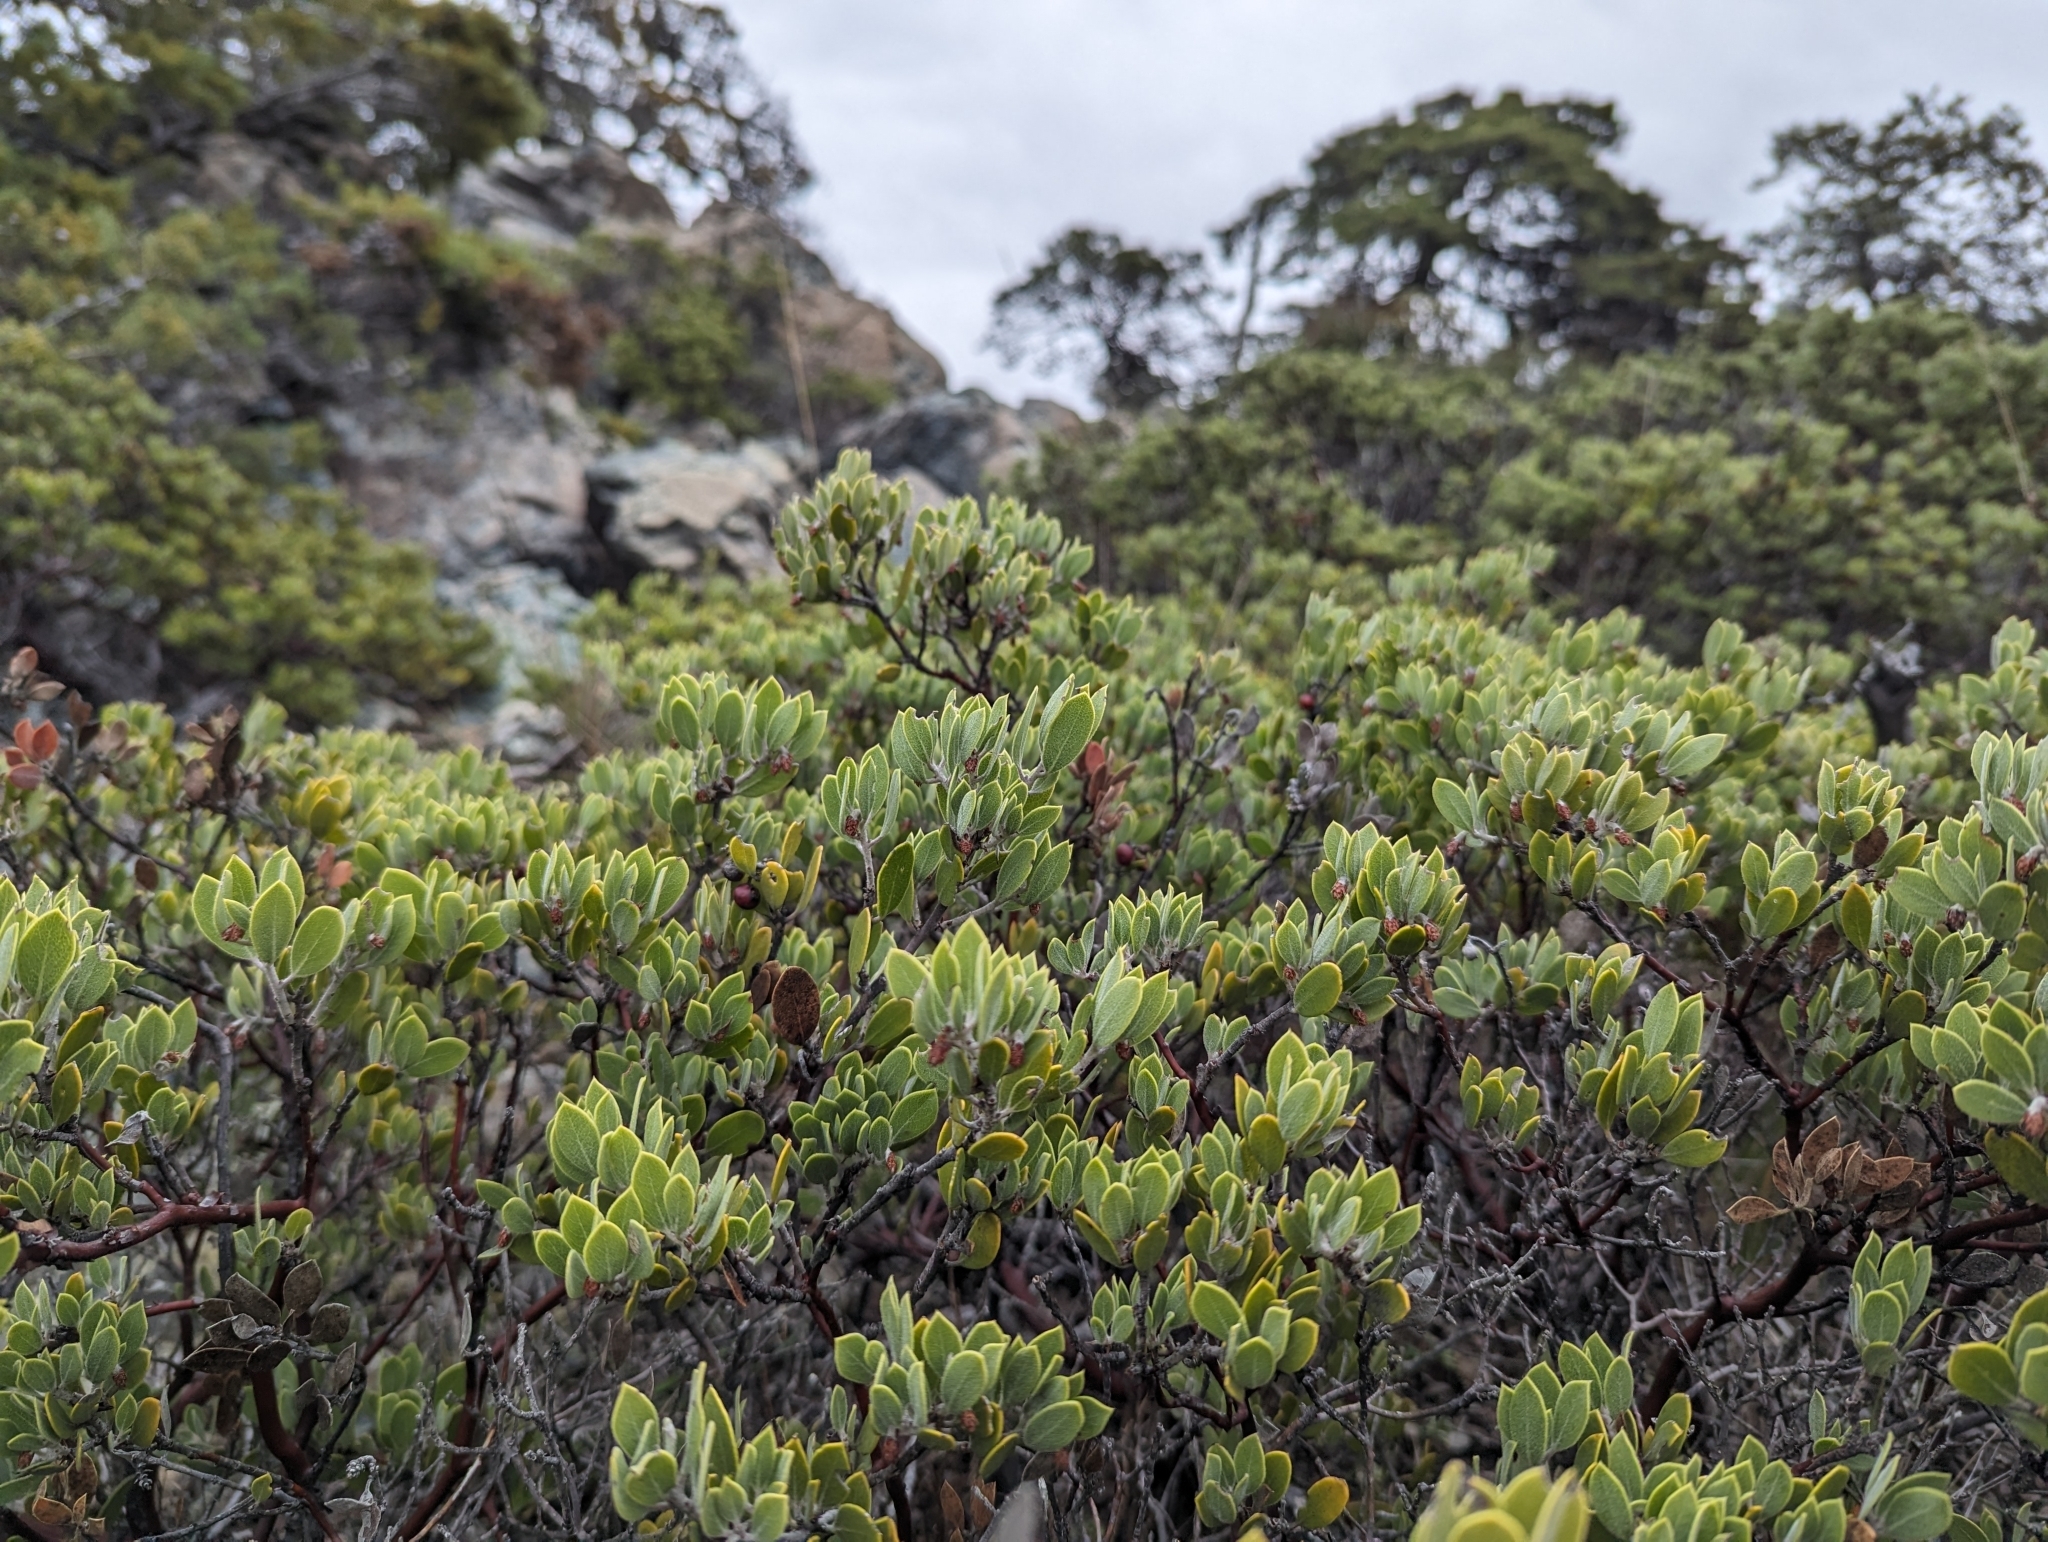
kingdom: Plantae
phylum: Tracheophyta
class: Magnoliopsida
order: Ericales
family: Ericaceae
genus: Arctostaphylos
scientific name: Arctostaphylos montana
